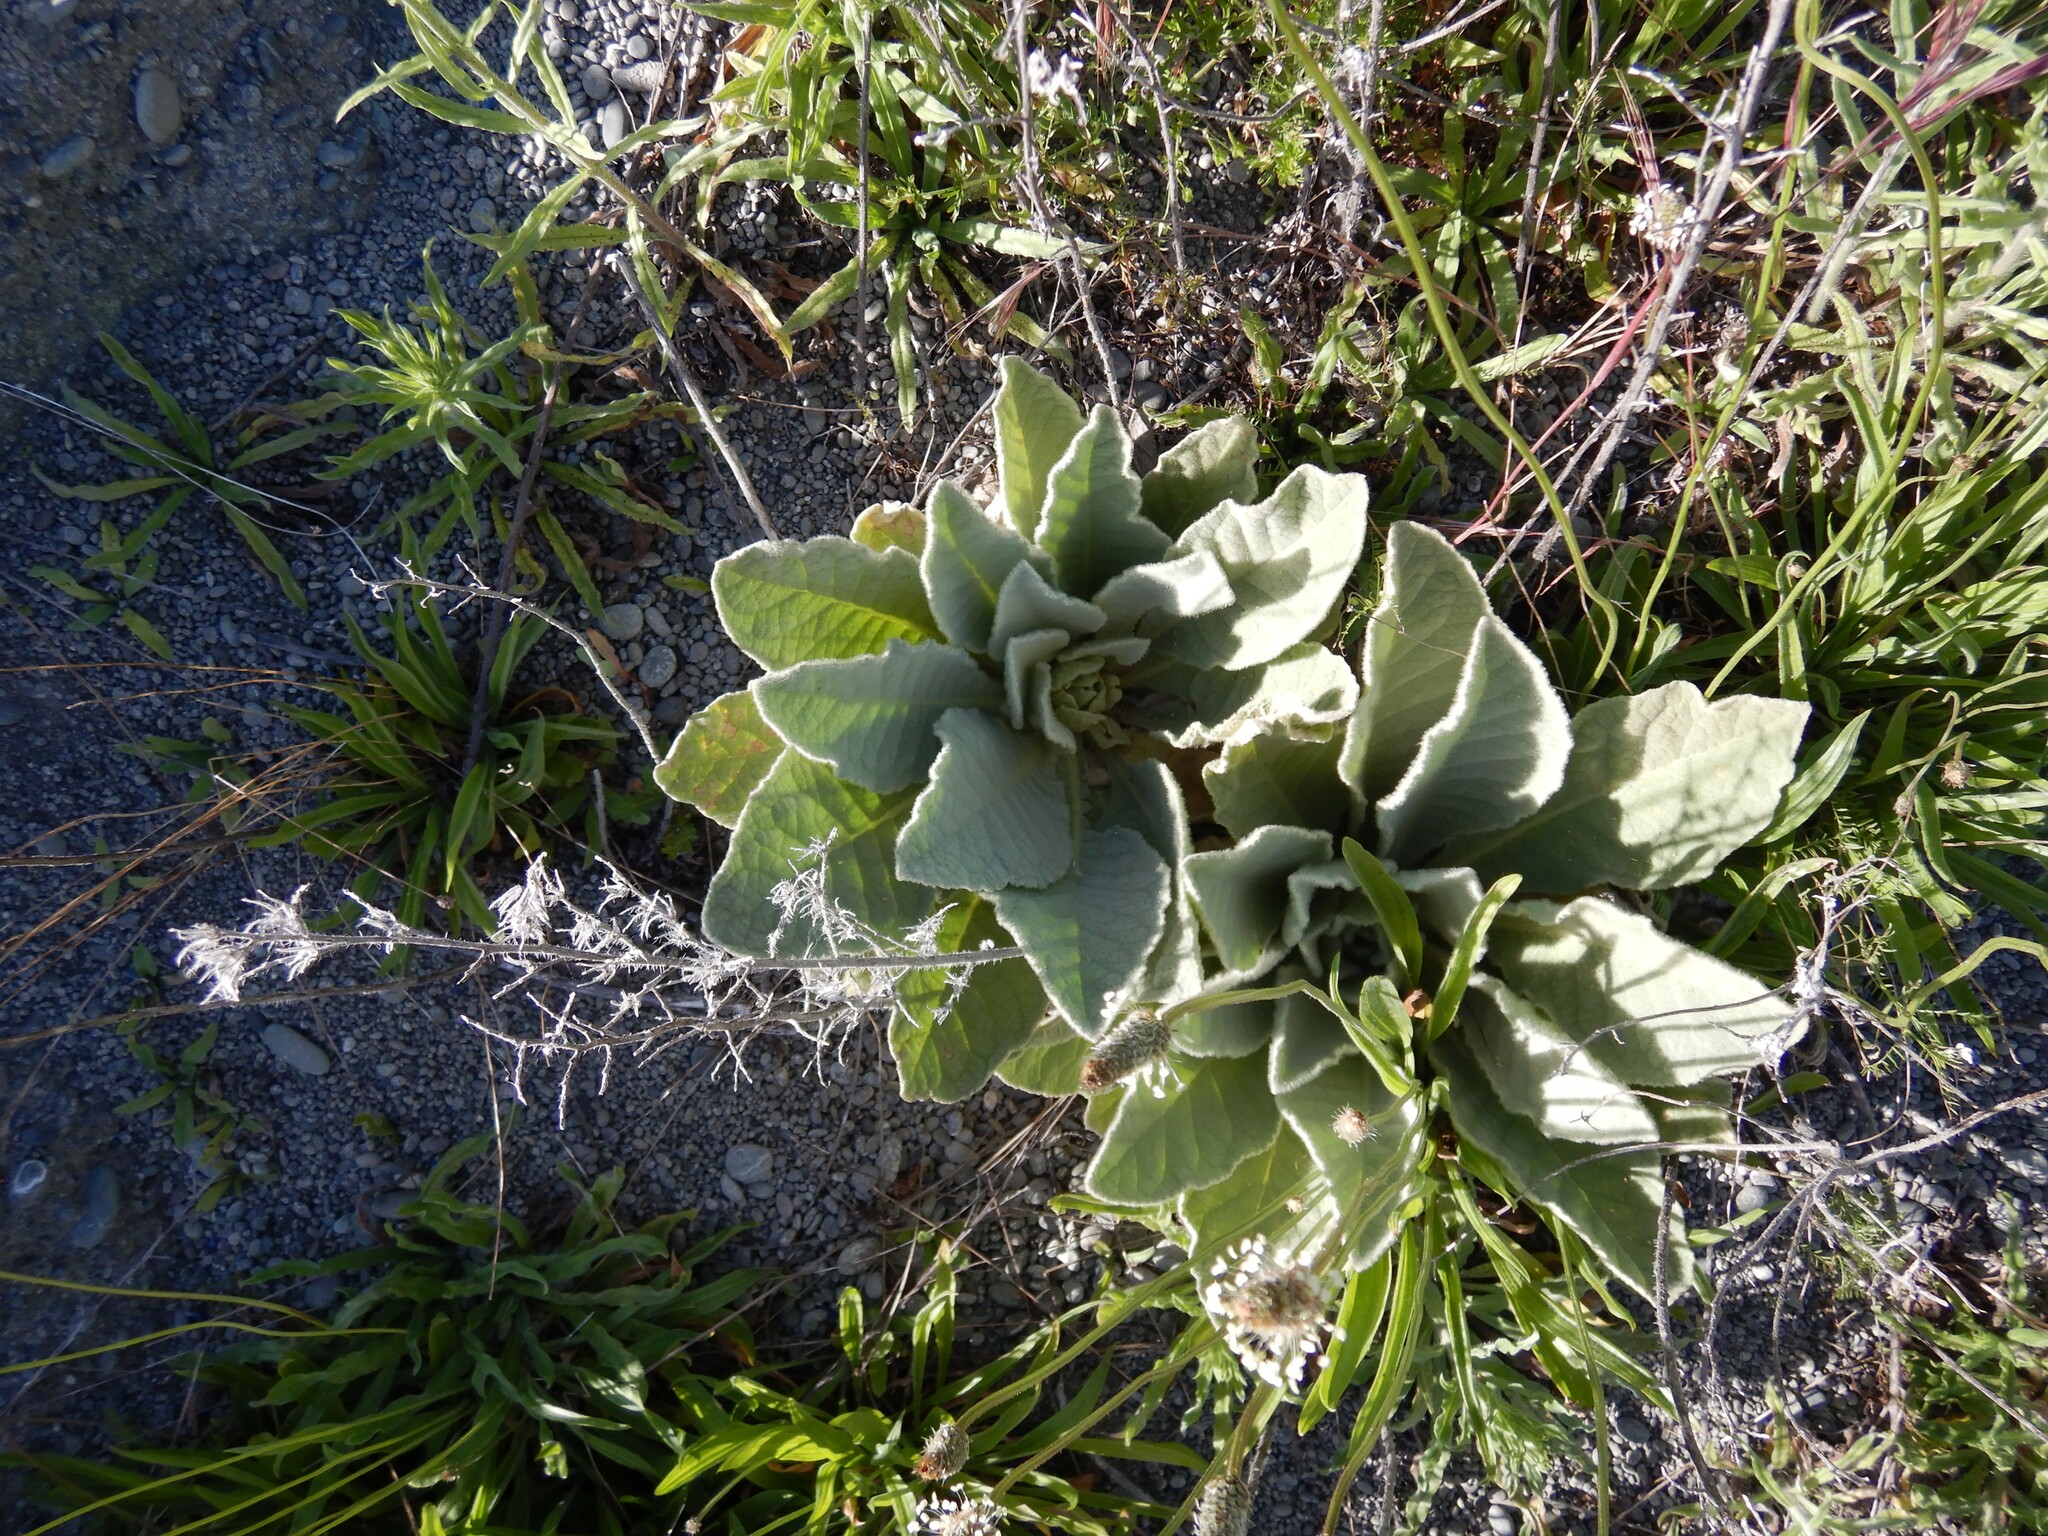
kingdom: Plantae
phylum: Tracheophyta
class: Magnoliopsida
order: Lamiales
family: Scrophulariaceae
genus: Verbascum
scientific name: Verbascum thapsus
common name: Common mullein
